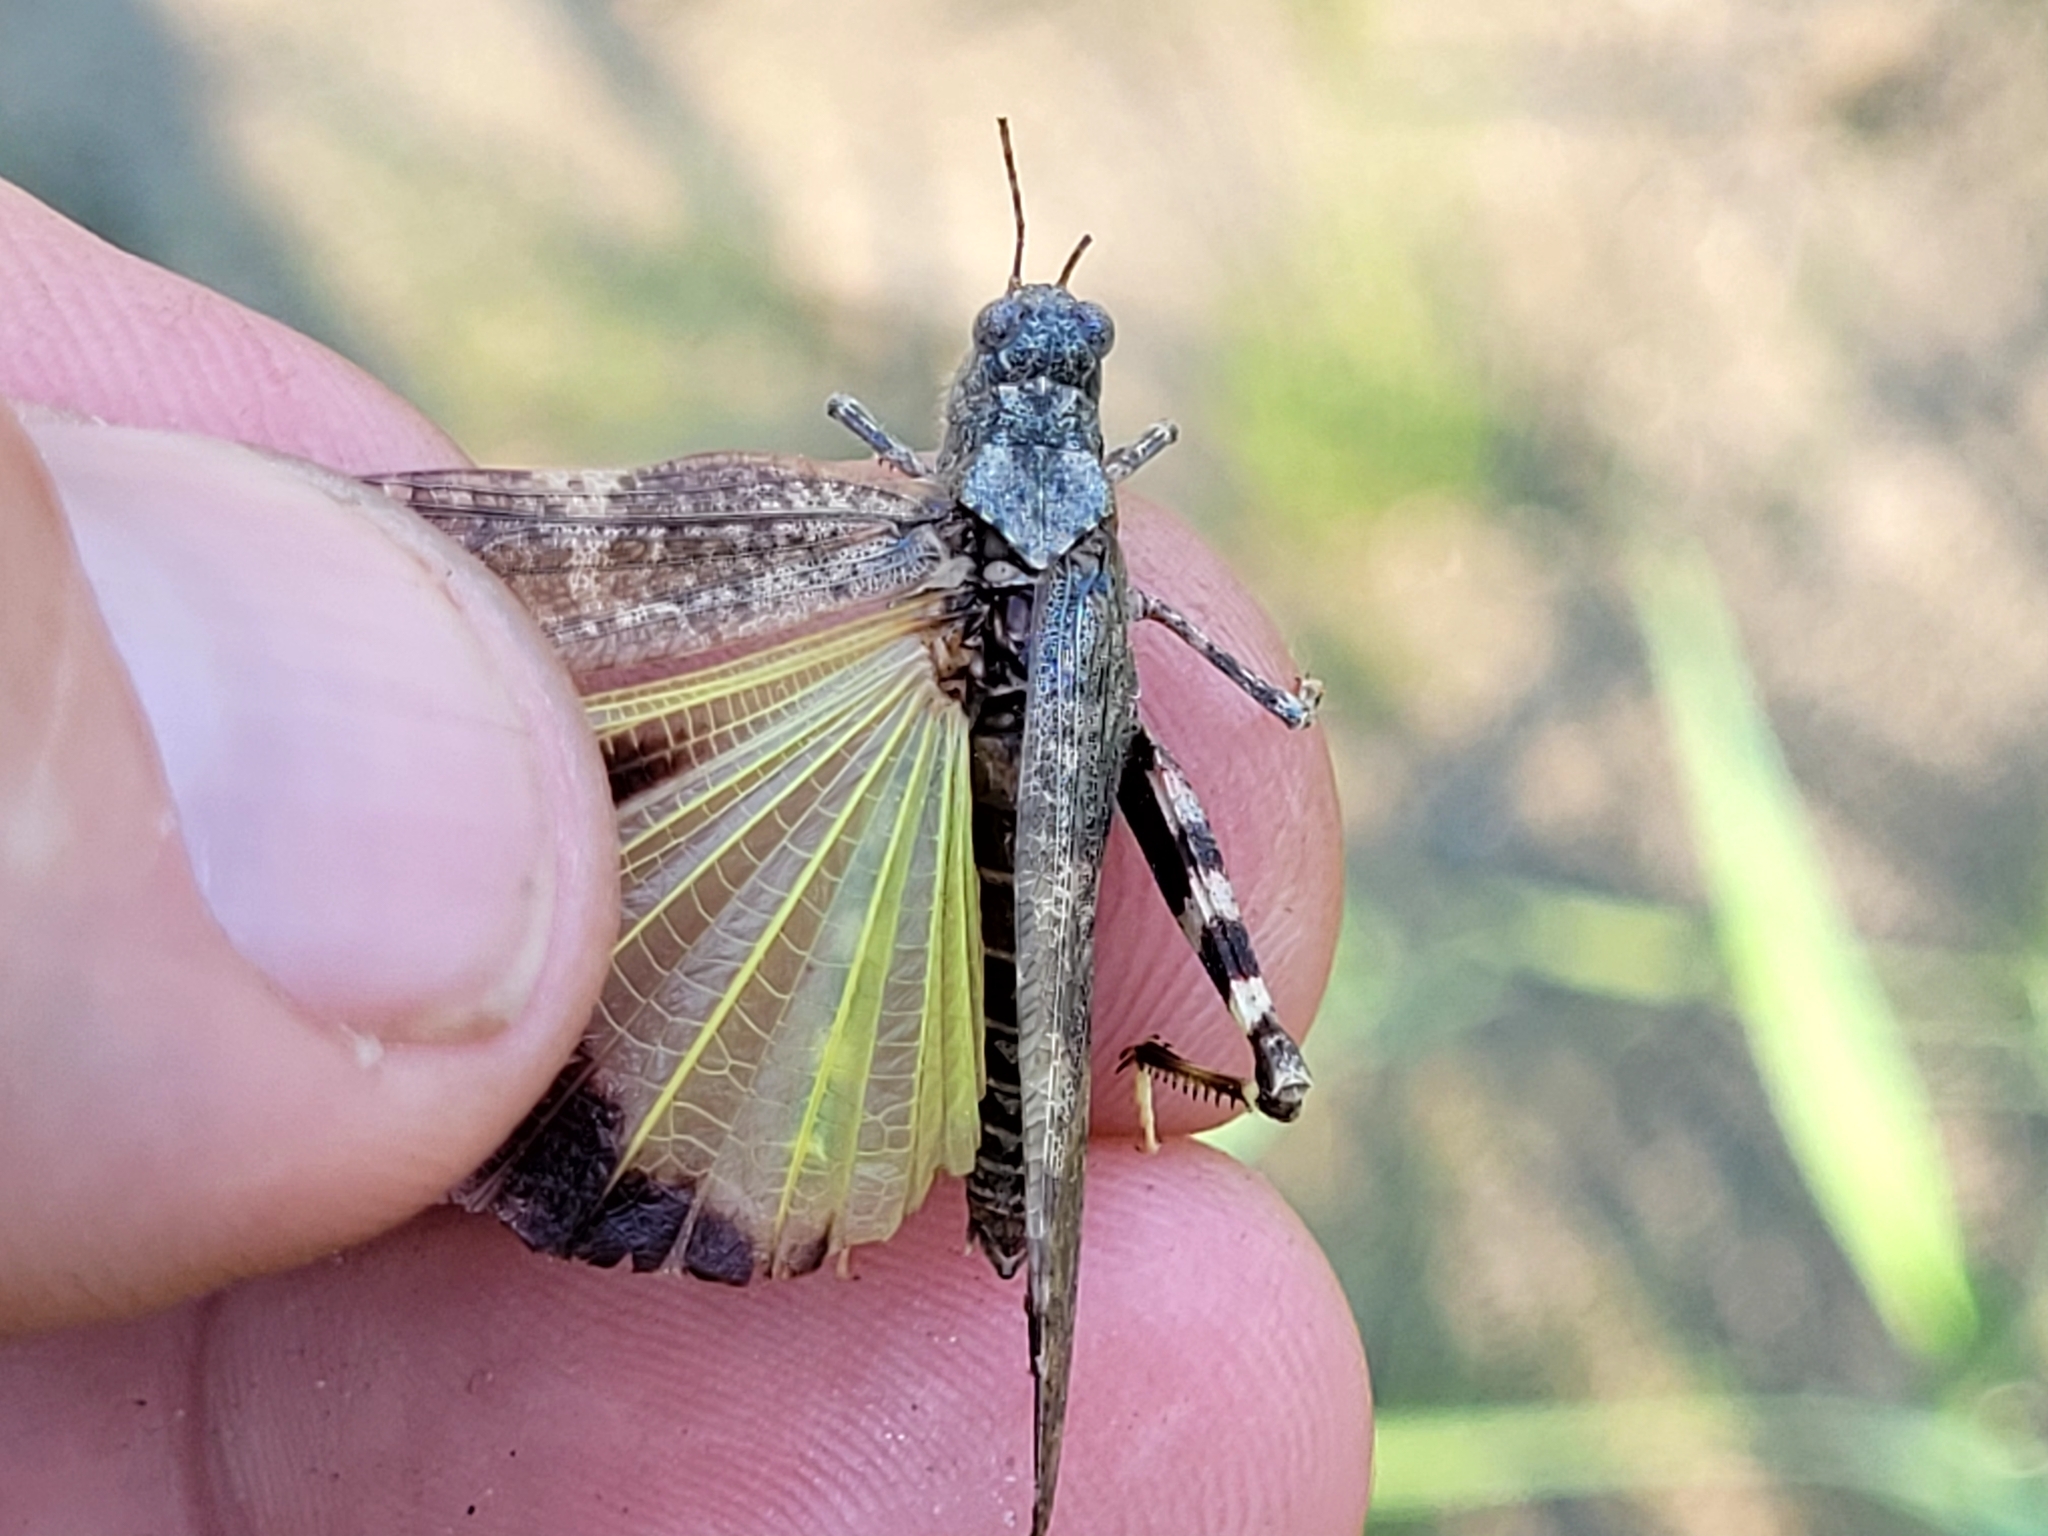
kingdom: Animalia
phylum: Arthropoda
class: Insecta
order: Orthoptera
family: Acrididae
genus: Trimerotropis
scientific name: Trimerotropis verruculata
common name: Crackling forest grasshopper
